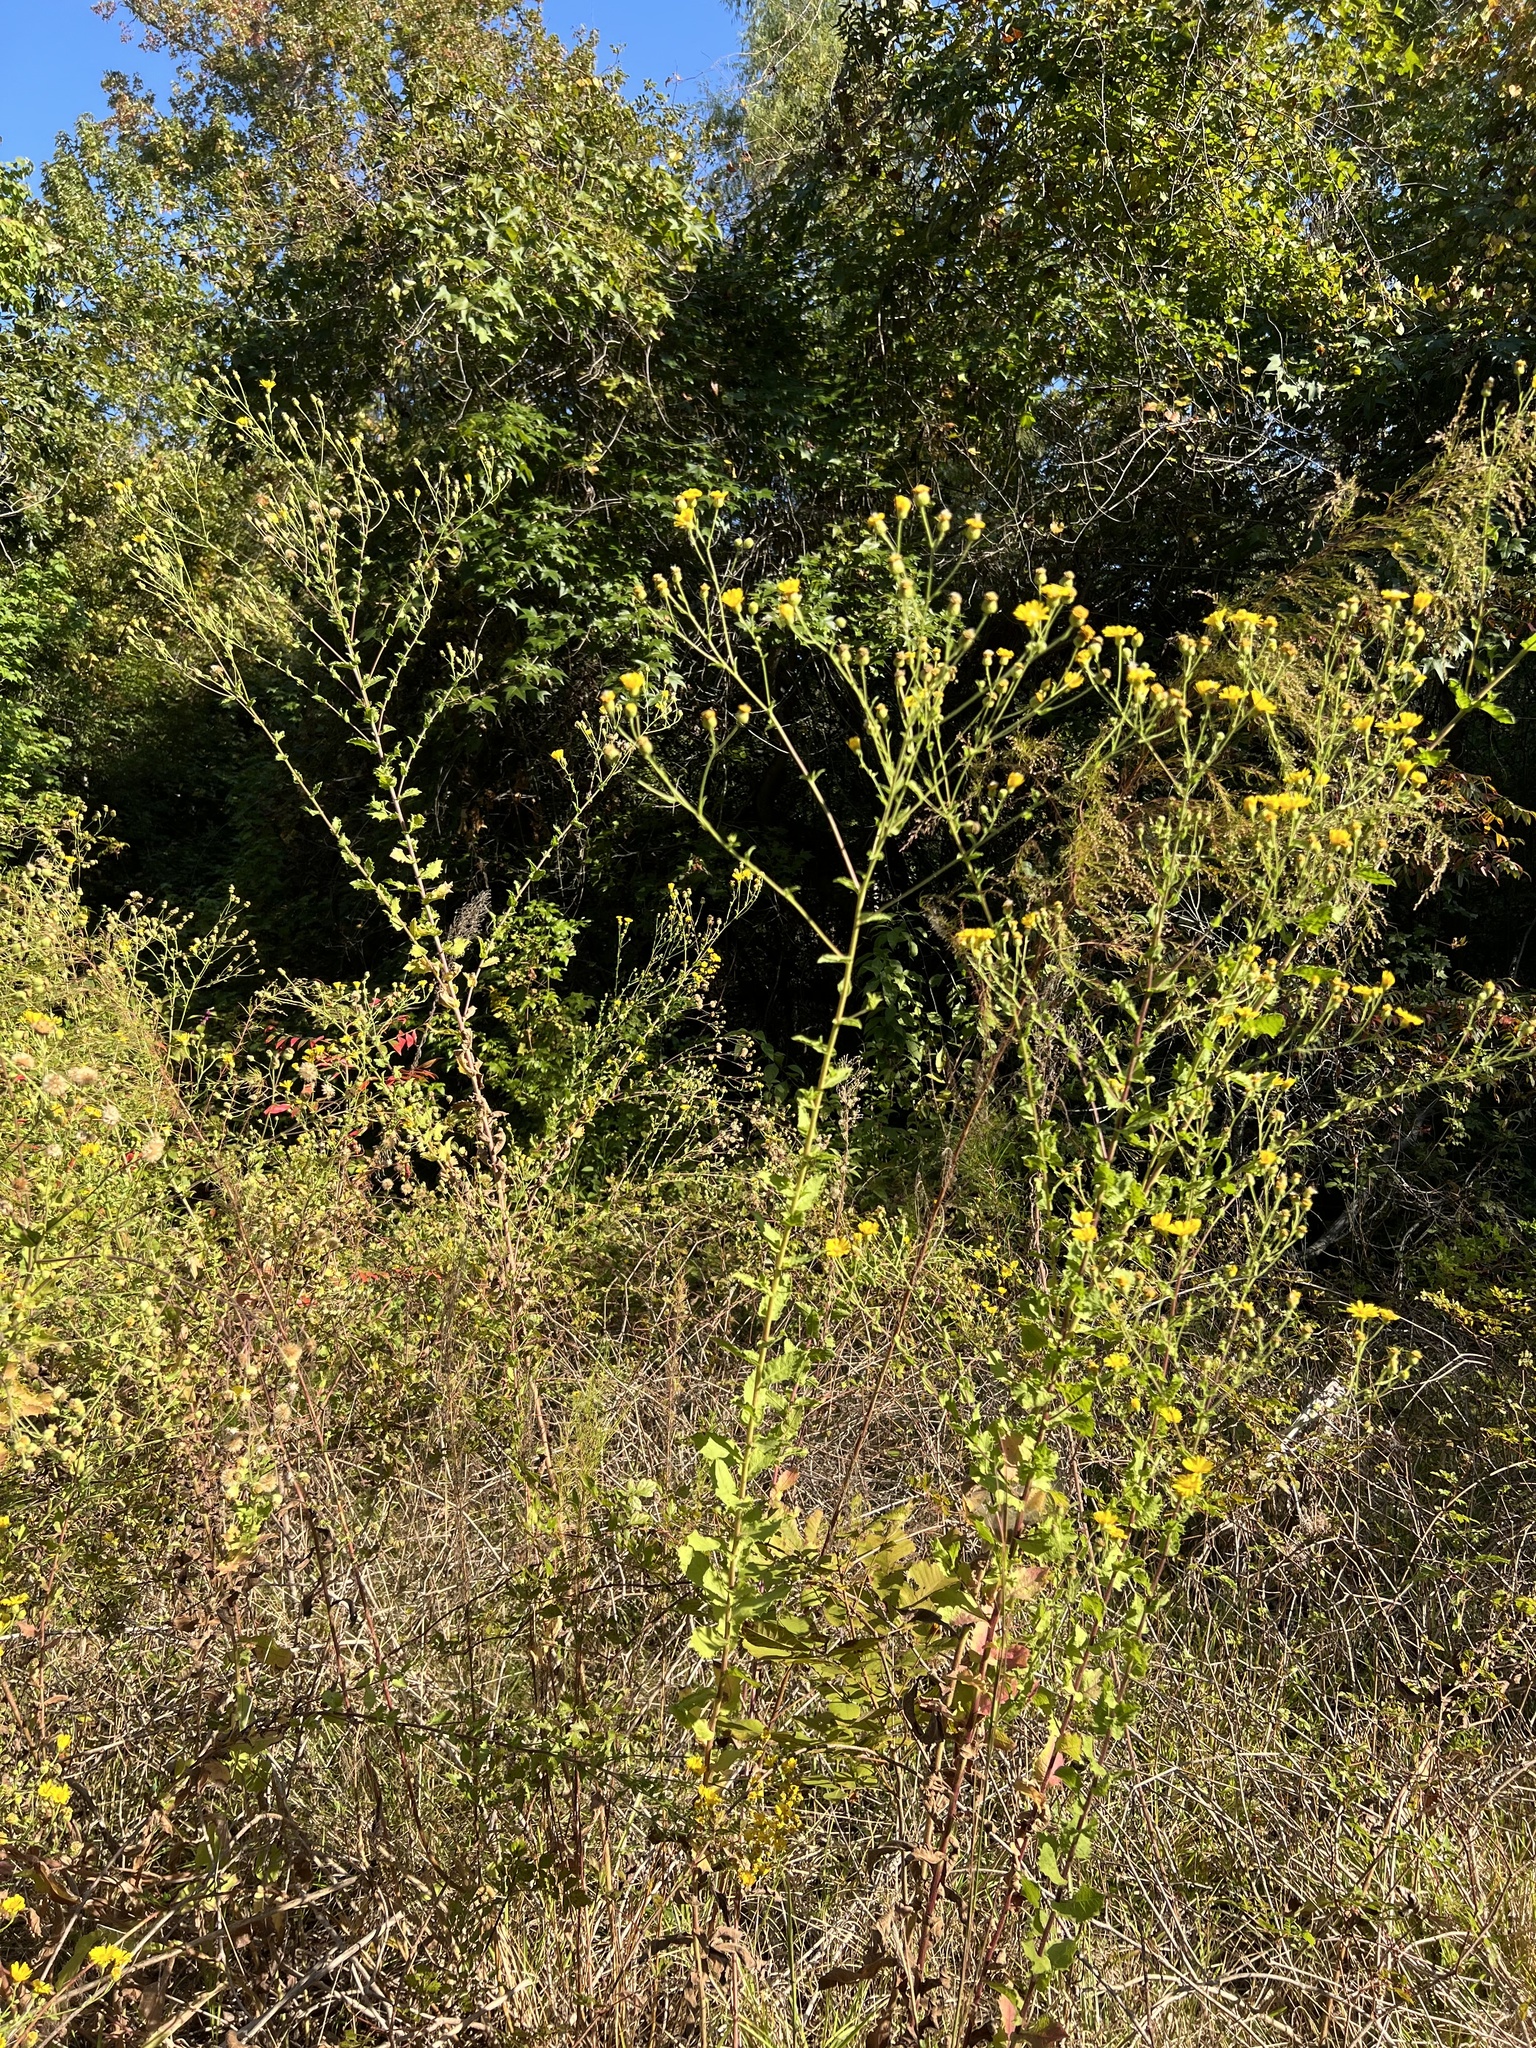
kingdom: Plantae
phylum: Tracheophyta
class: Magnoliopsida
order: Asterales
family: Asteraceae
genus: Heterotheca
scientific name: Heterotheca subaxillaris
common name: Camphorweed
